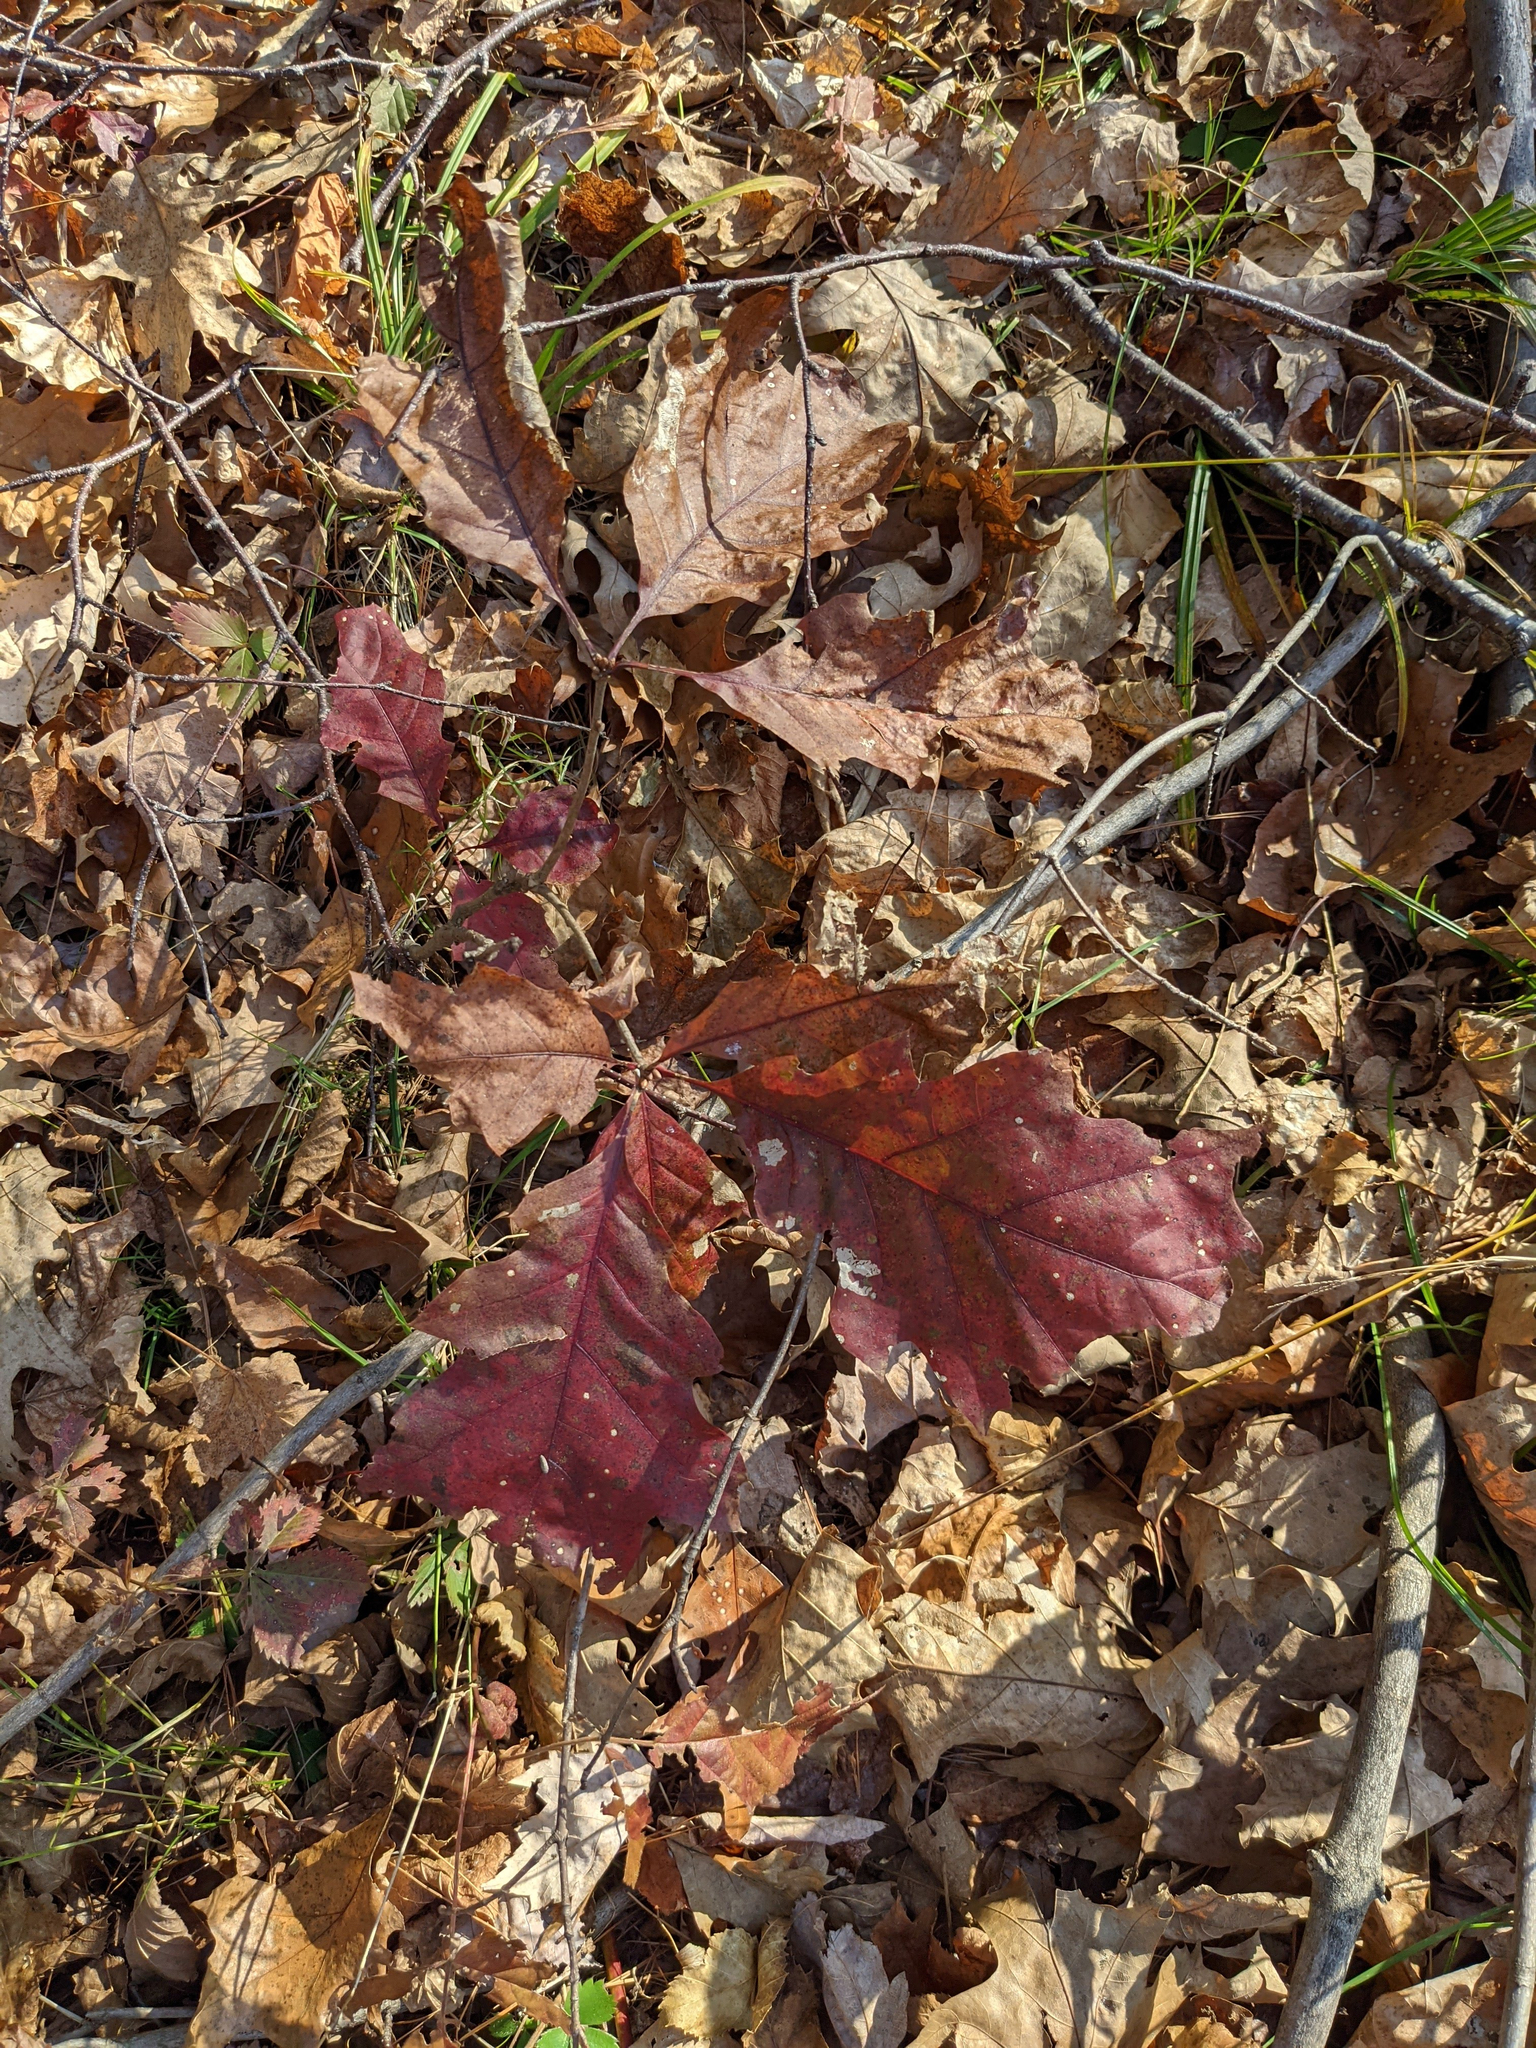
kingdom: Plantae
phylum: Tracheophyta
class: Magnoliopsida
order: Fagales
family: Fagaceae
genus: Quercus
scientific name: Quercus rubra
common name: Red oak
